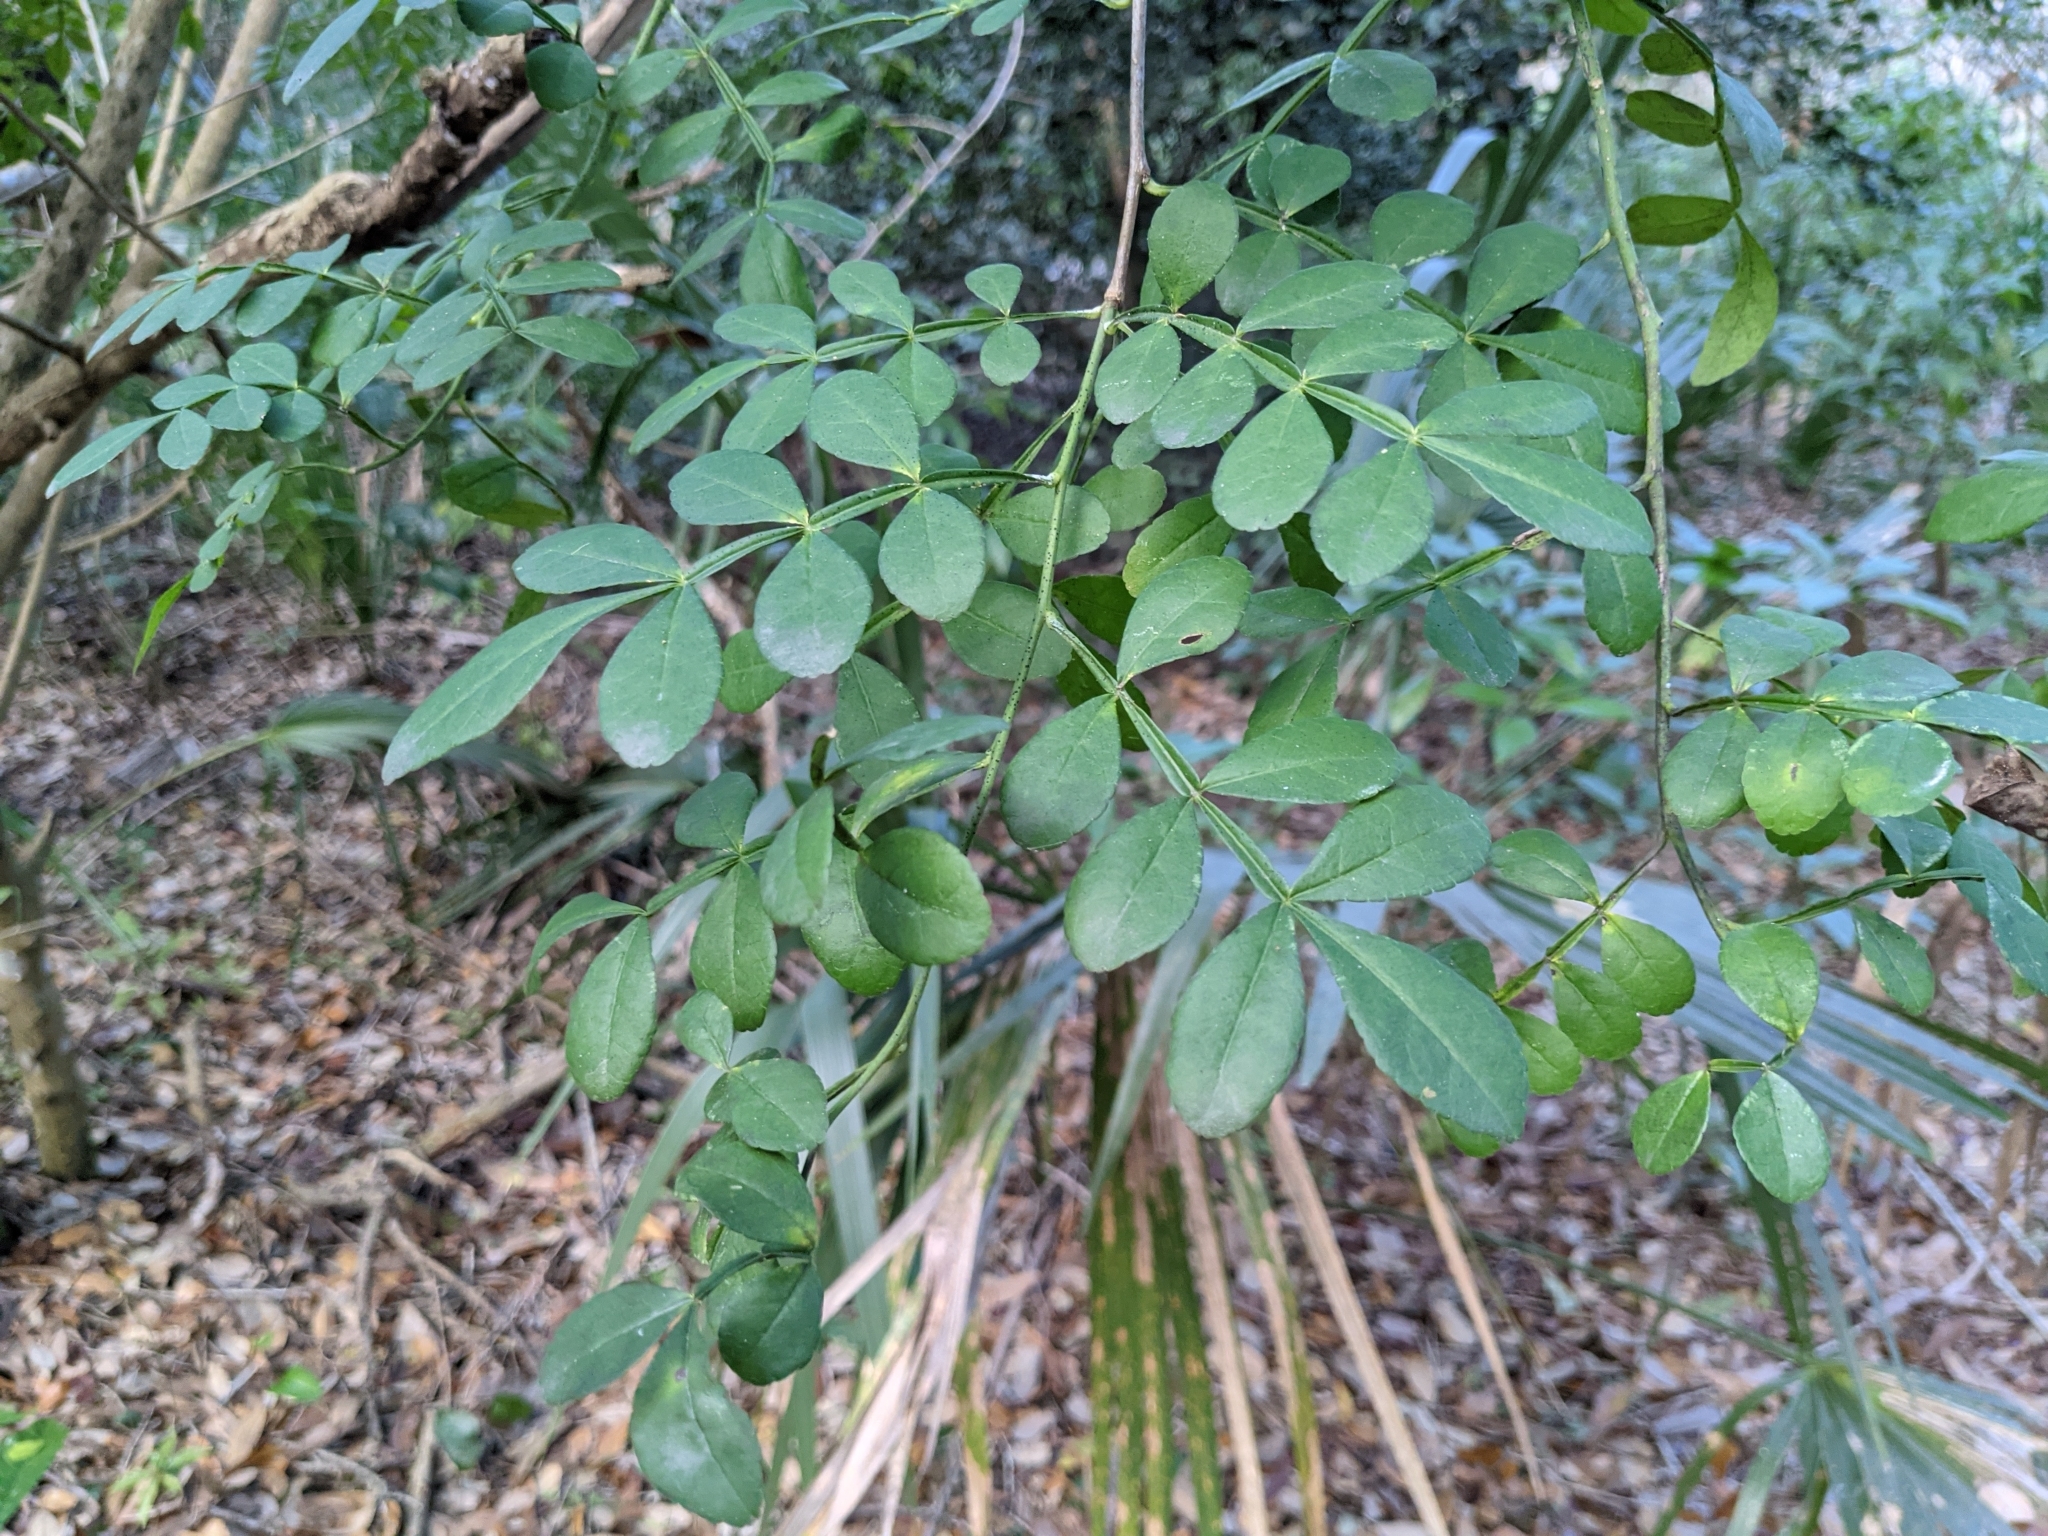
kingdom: Plantae
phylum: Tracheophyta
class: Magnoliopsida
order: Sapindales
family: Rutaceae
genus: Zanthoxylum
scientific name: Zanthoxylum fagara
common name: Lime prickly-ash
